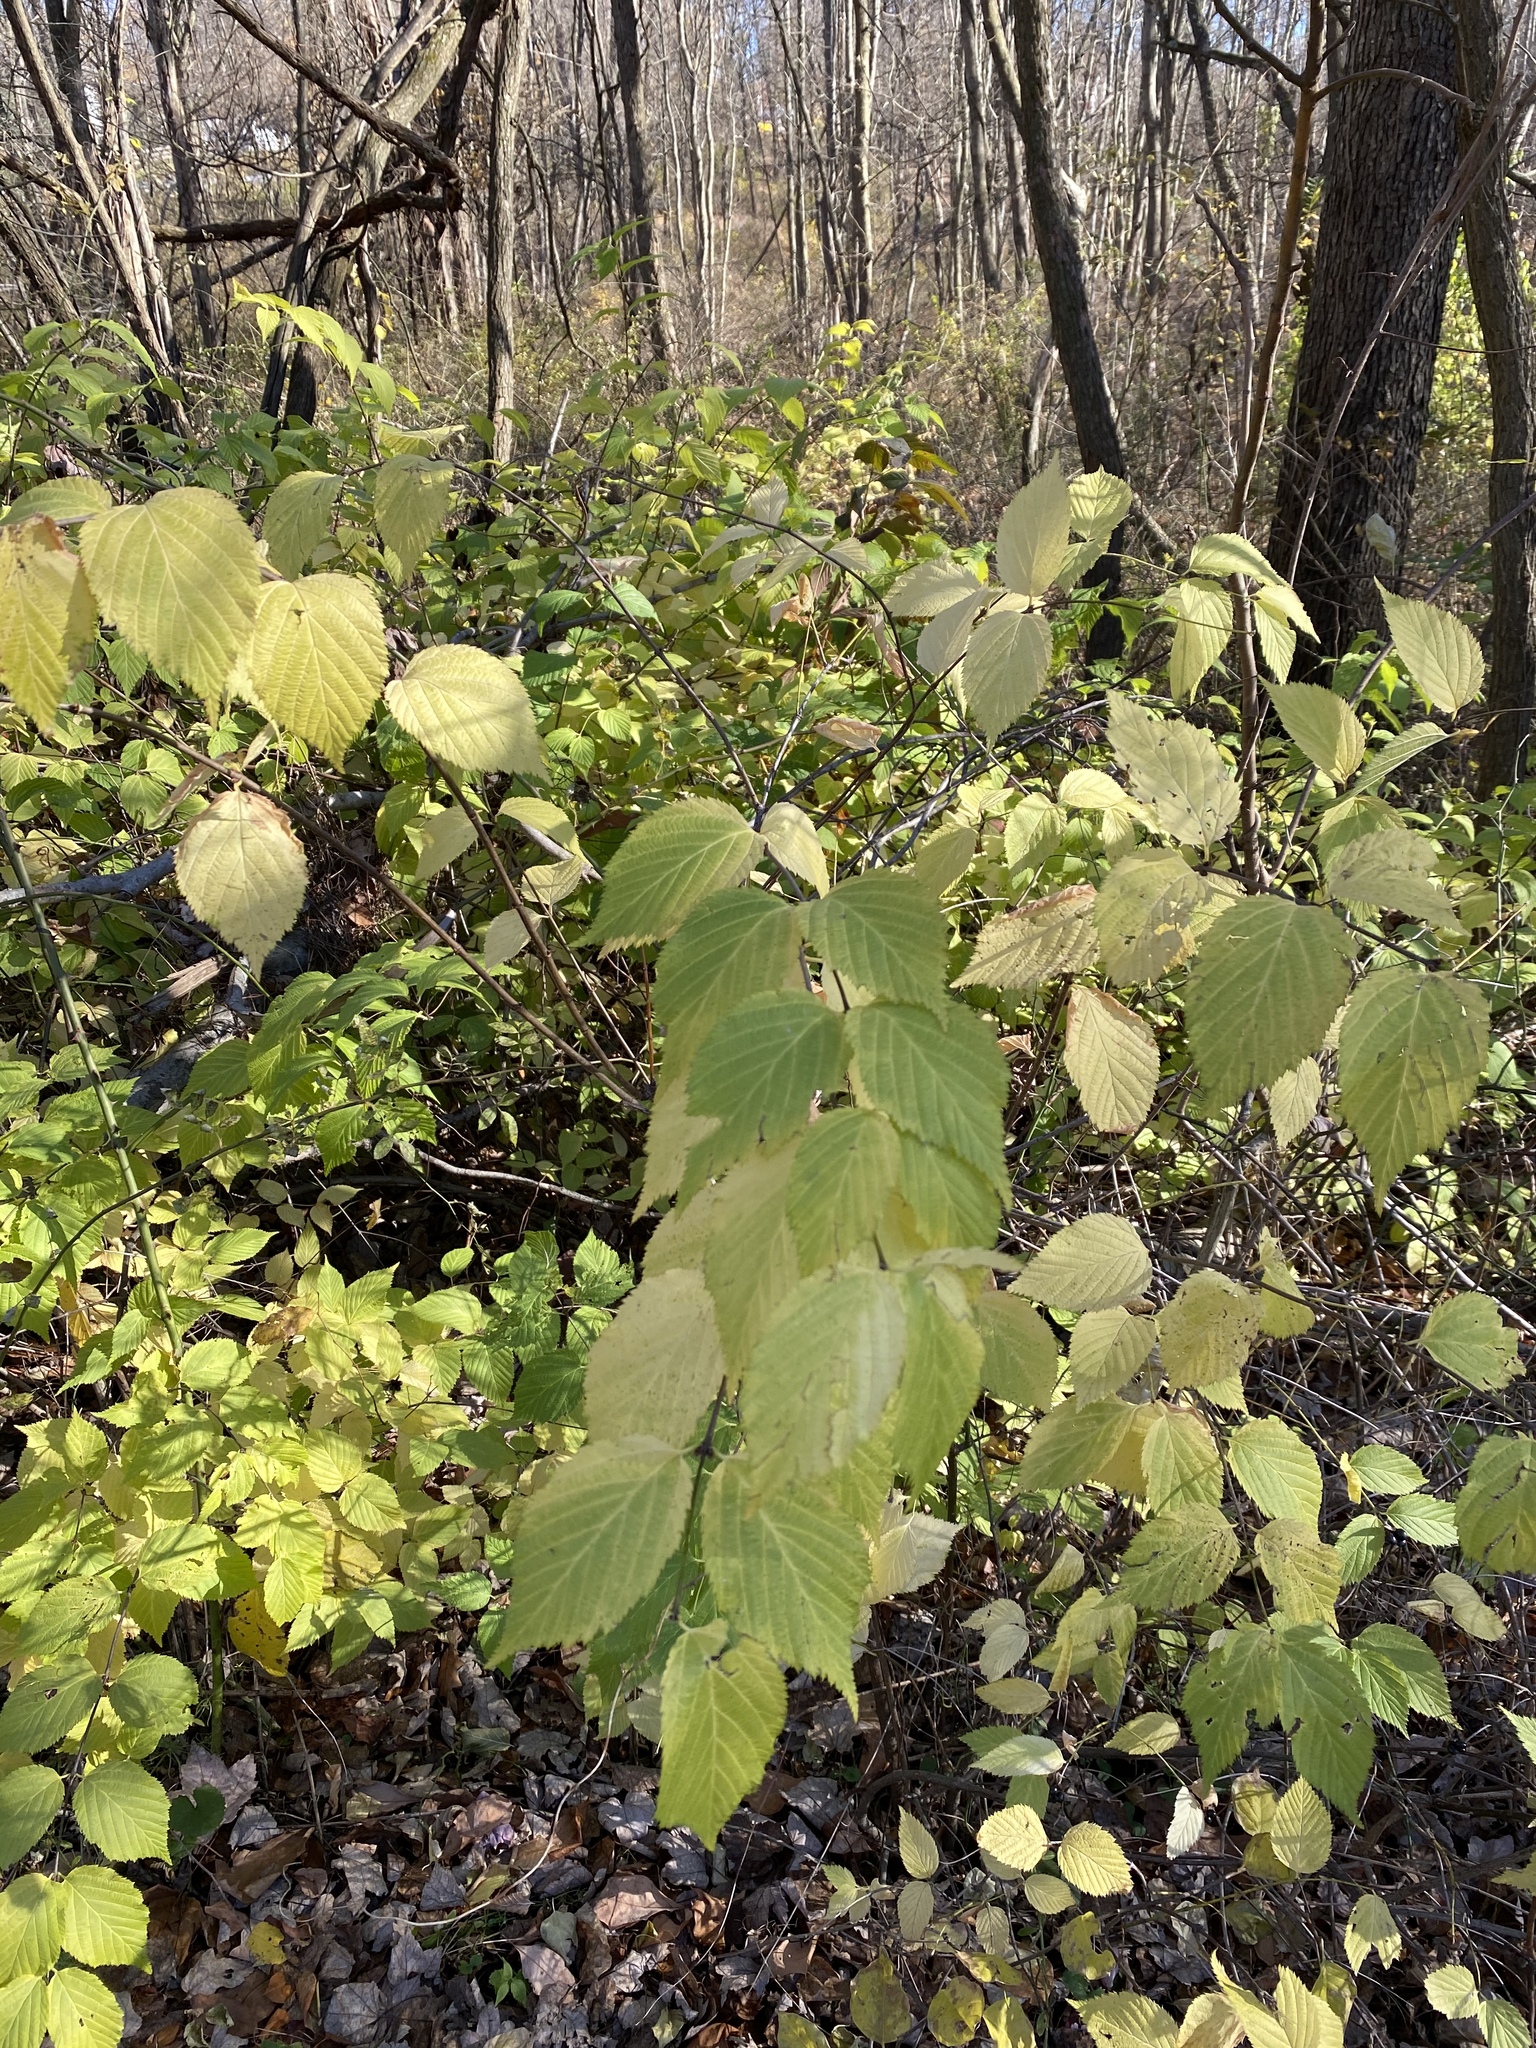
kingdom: Plantae
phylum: Tracheophyta
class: Magnoliopsida
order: Rosales
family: Rosaceae
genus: Rhodotypos
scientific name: Rhodotypos scandens
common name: Jetbead
